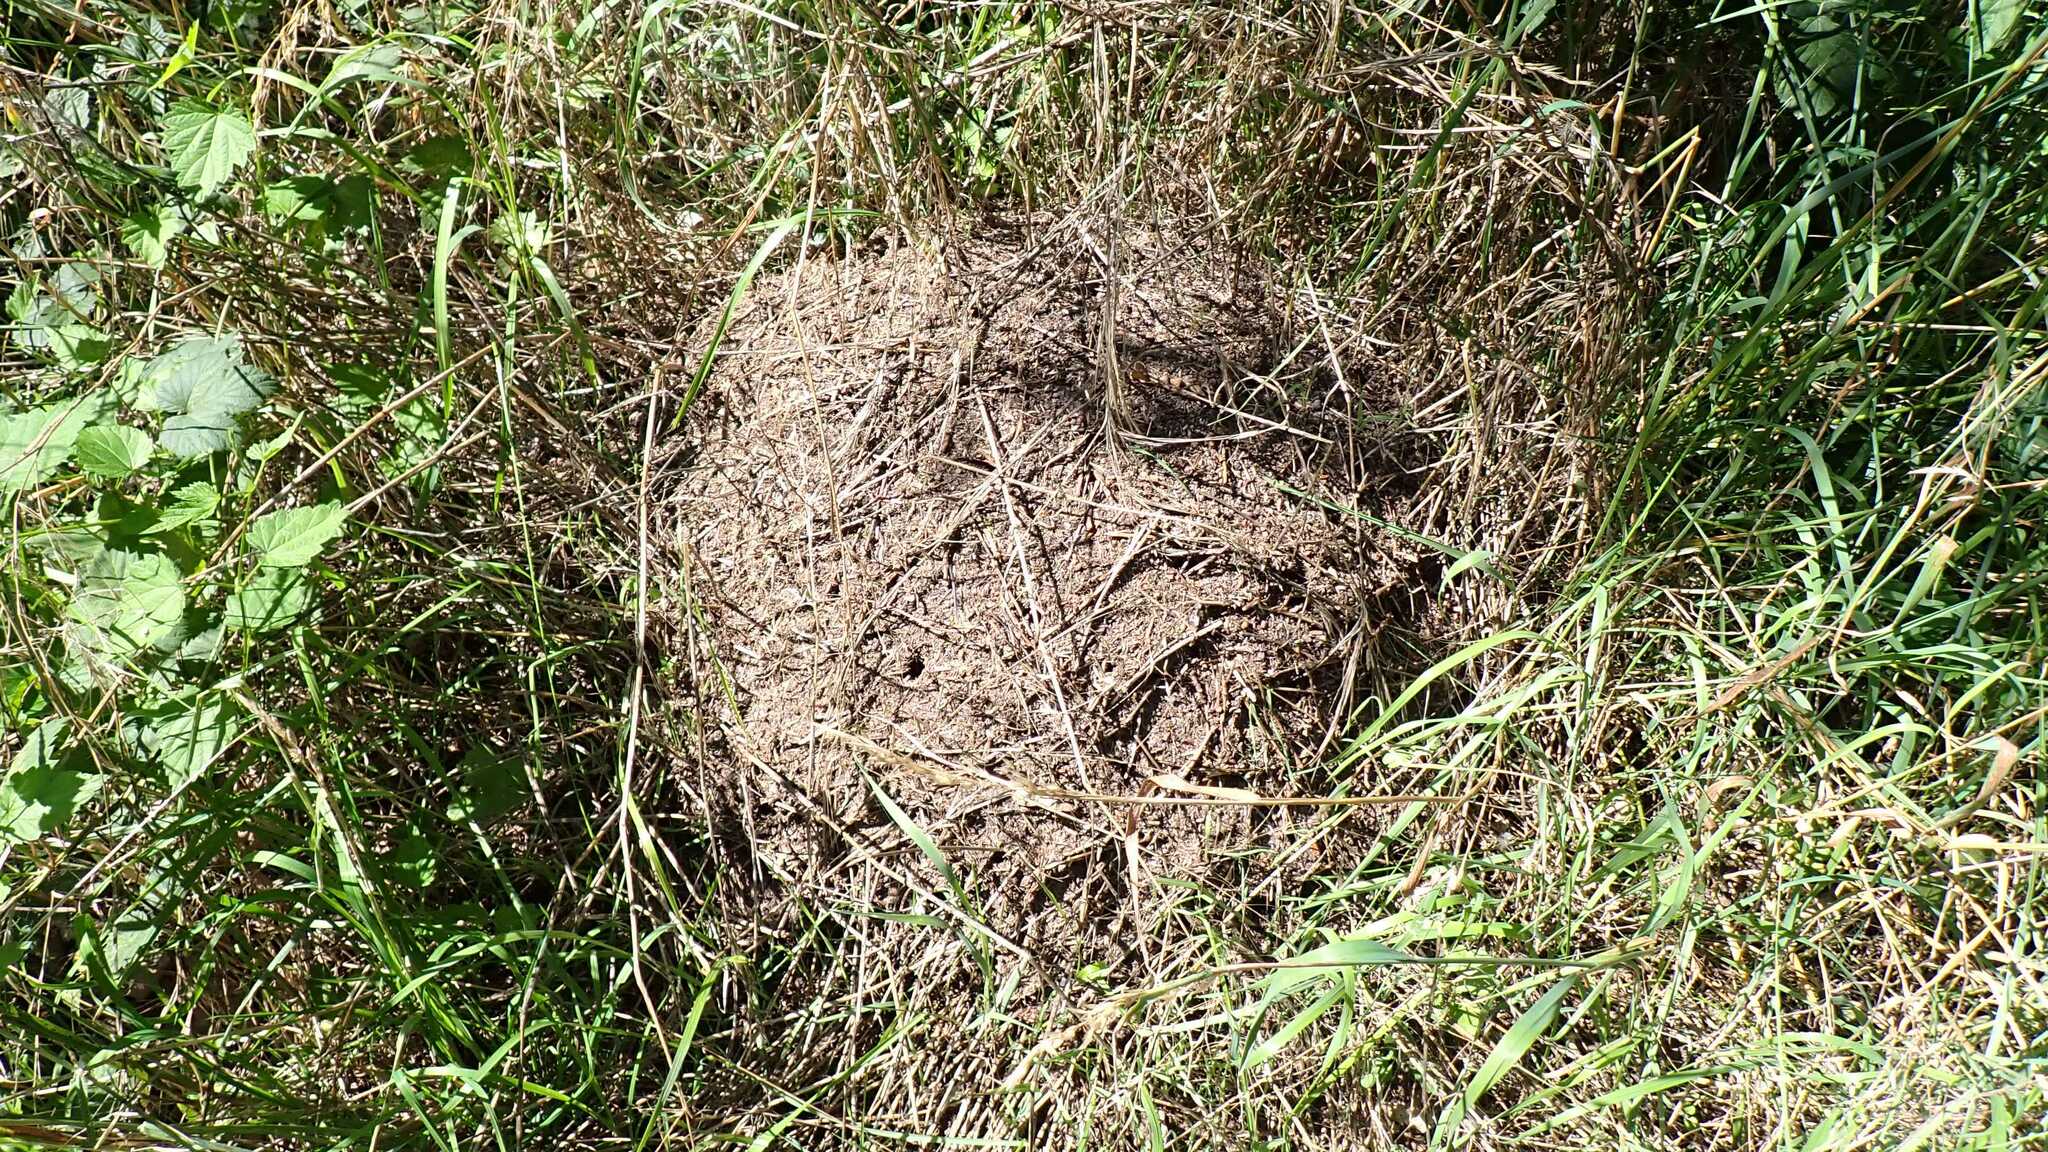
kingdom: Animalia
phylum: Arthropoda
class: Insecta
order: Hymenoptera
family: Formicidae
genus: Formica
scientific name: Formica
